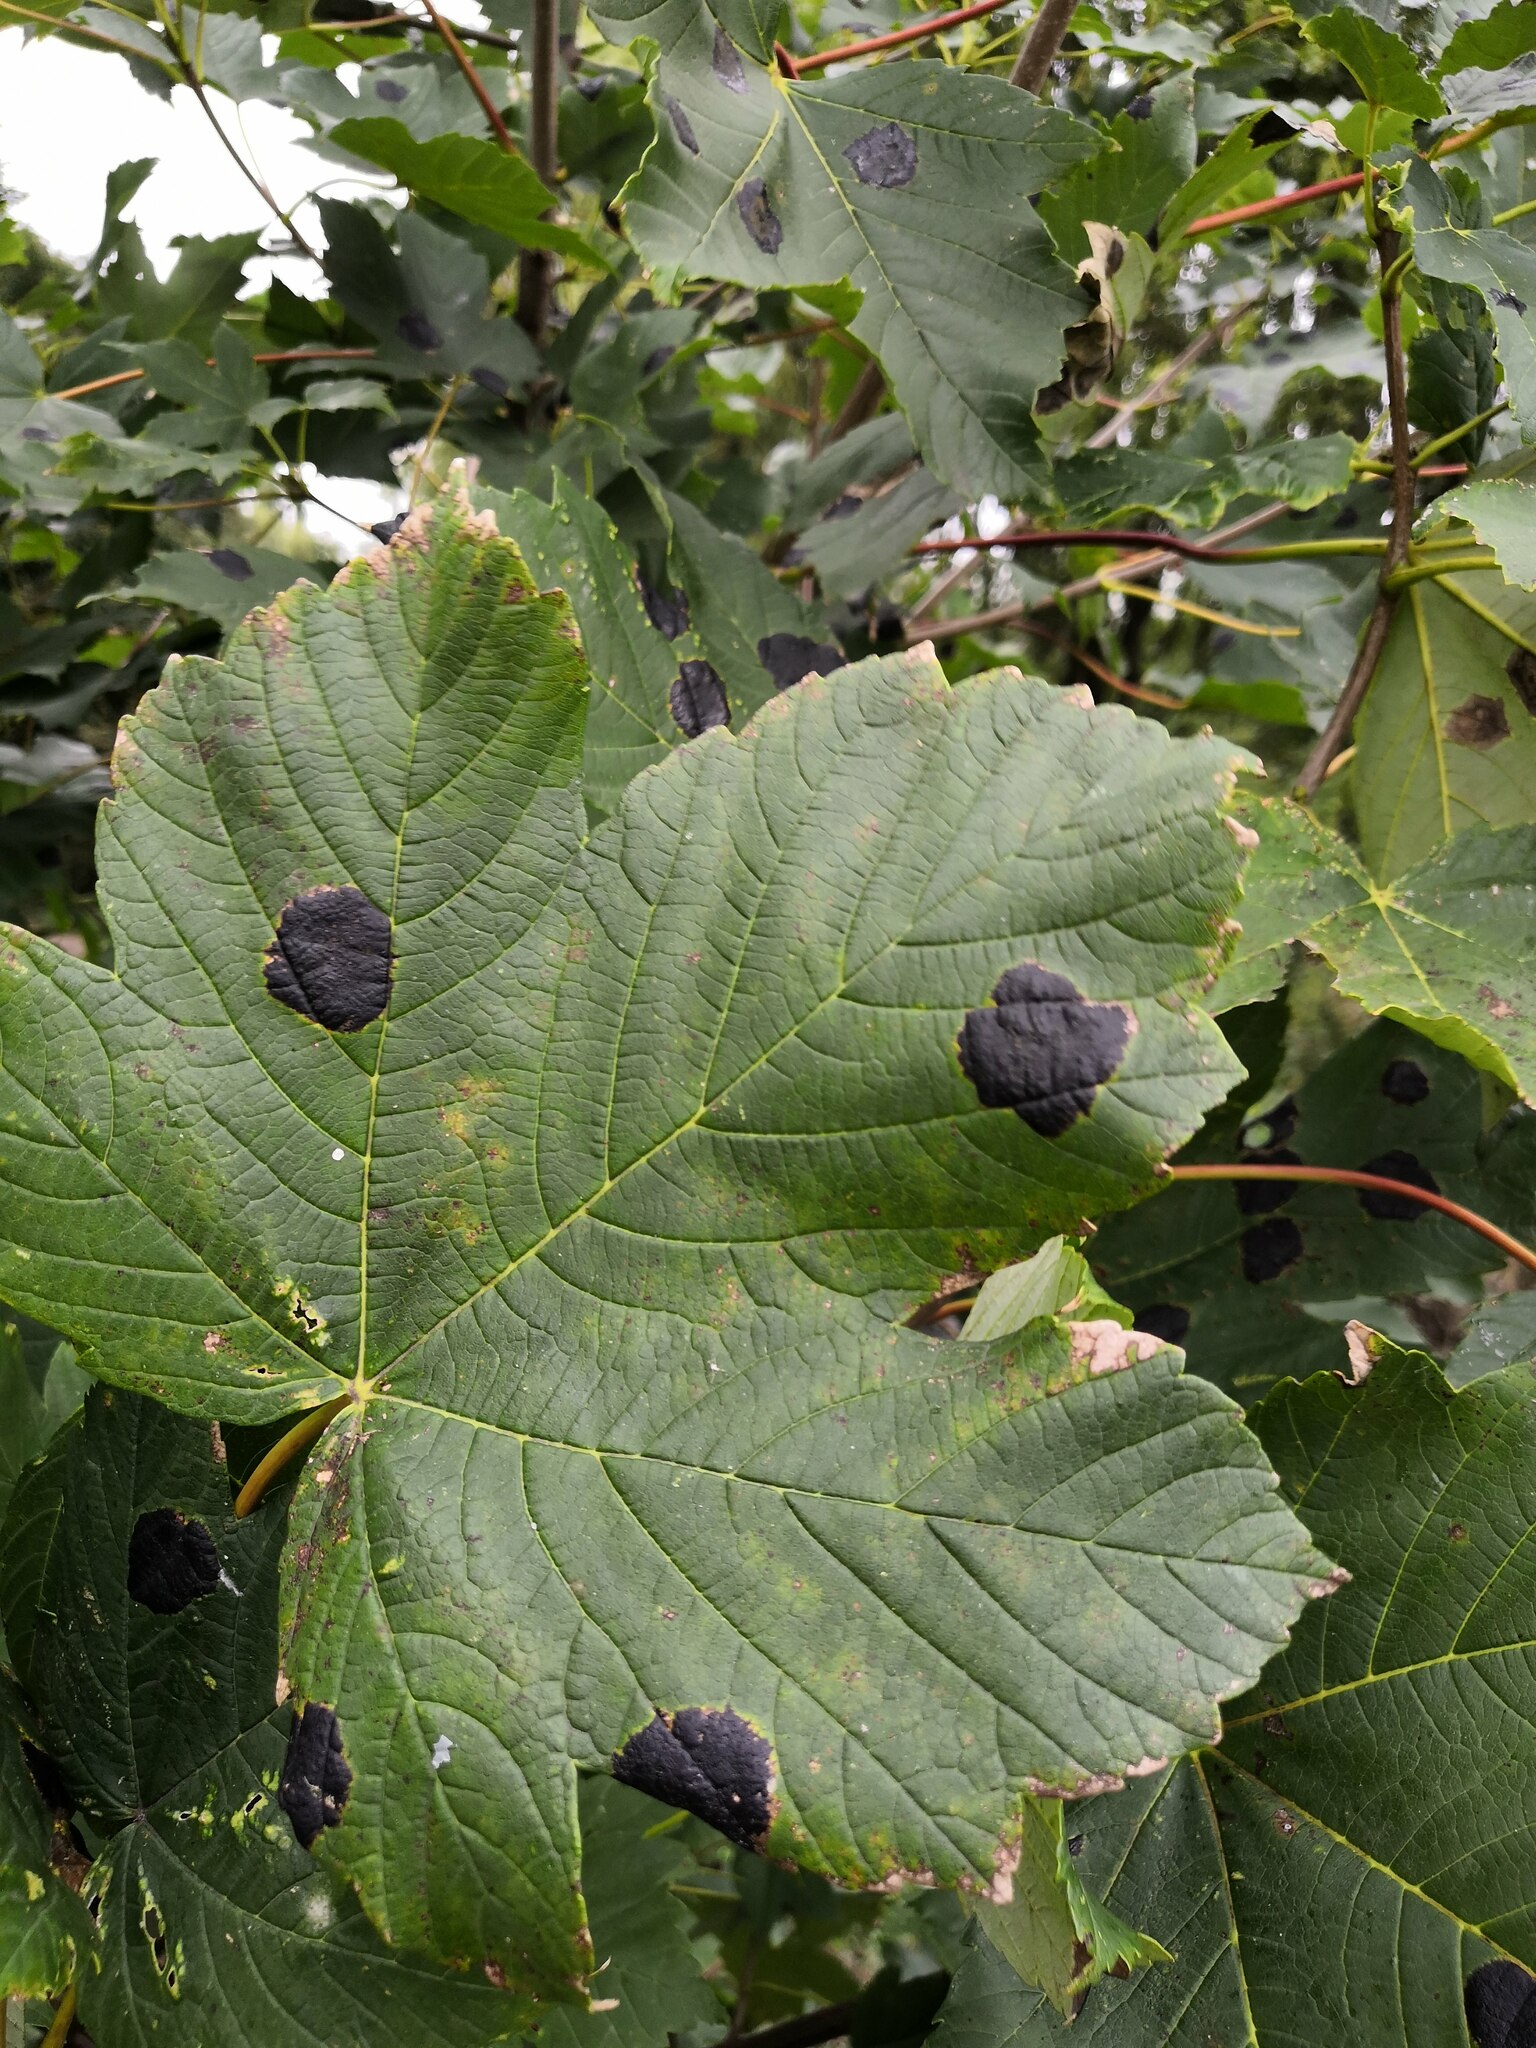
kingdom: Fungi
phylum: Ascomycota
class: Leotiomycetes
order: Rhytismatales
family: Rhytismataceae
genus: Rhytisma
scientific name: Rhytisma acerinum
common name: European tar spot
